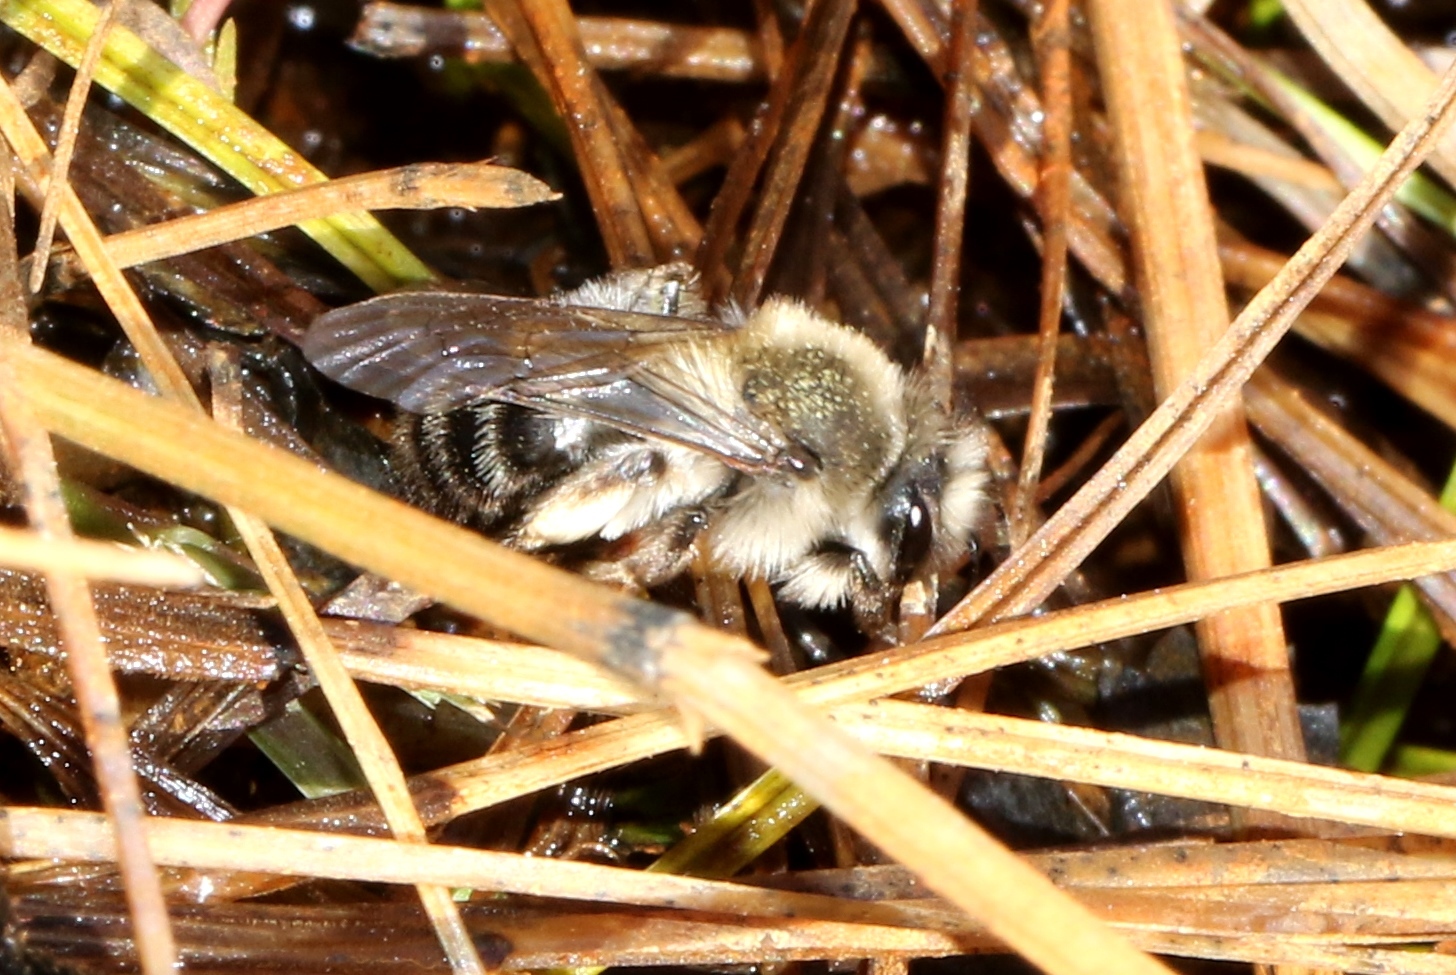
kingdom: Animalia
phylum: Arthropoda
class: Insecta
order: Hymenoptera
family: Andrenidae
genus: Andrena
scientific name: Andrena frigida
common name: Frigid mining bee
